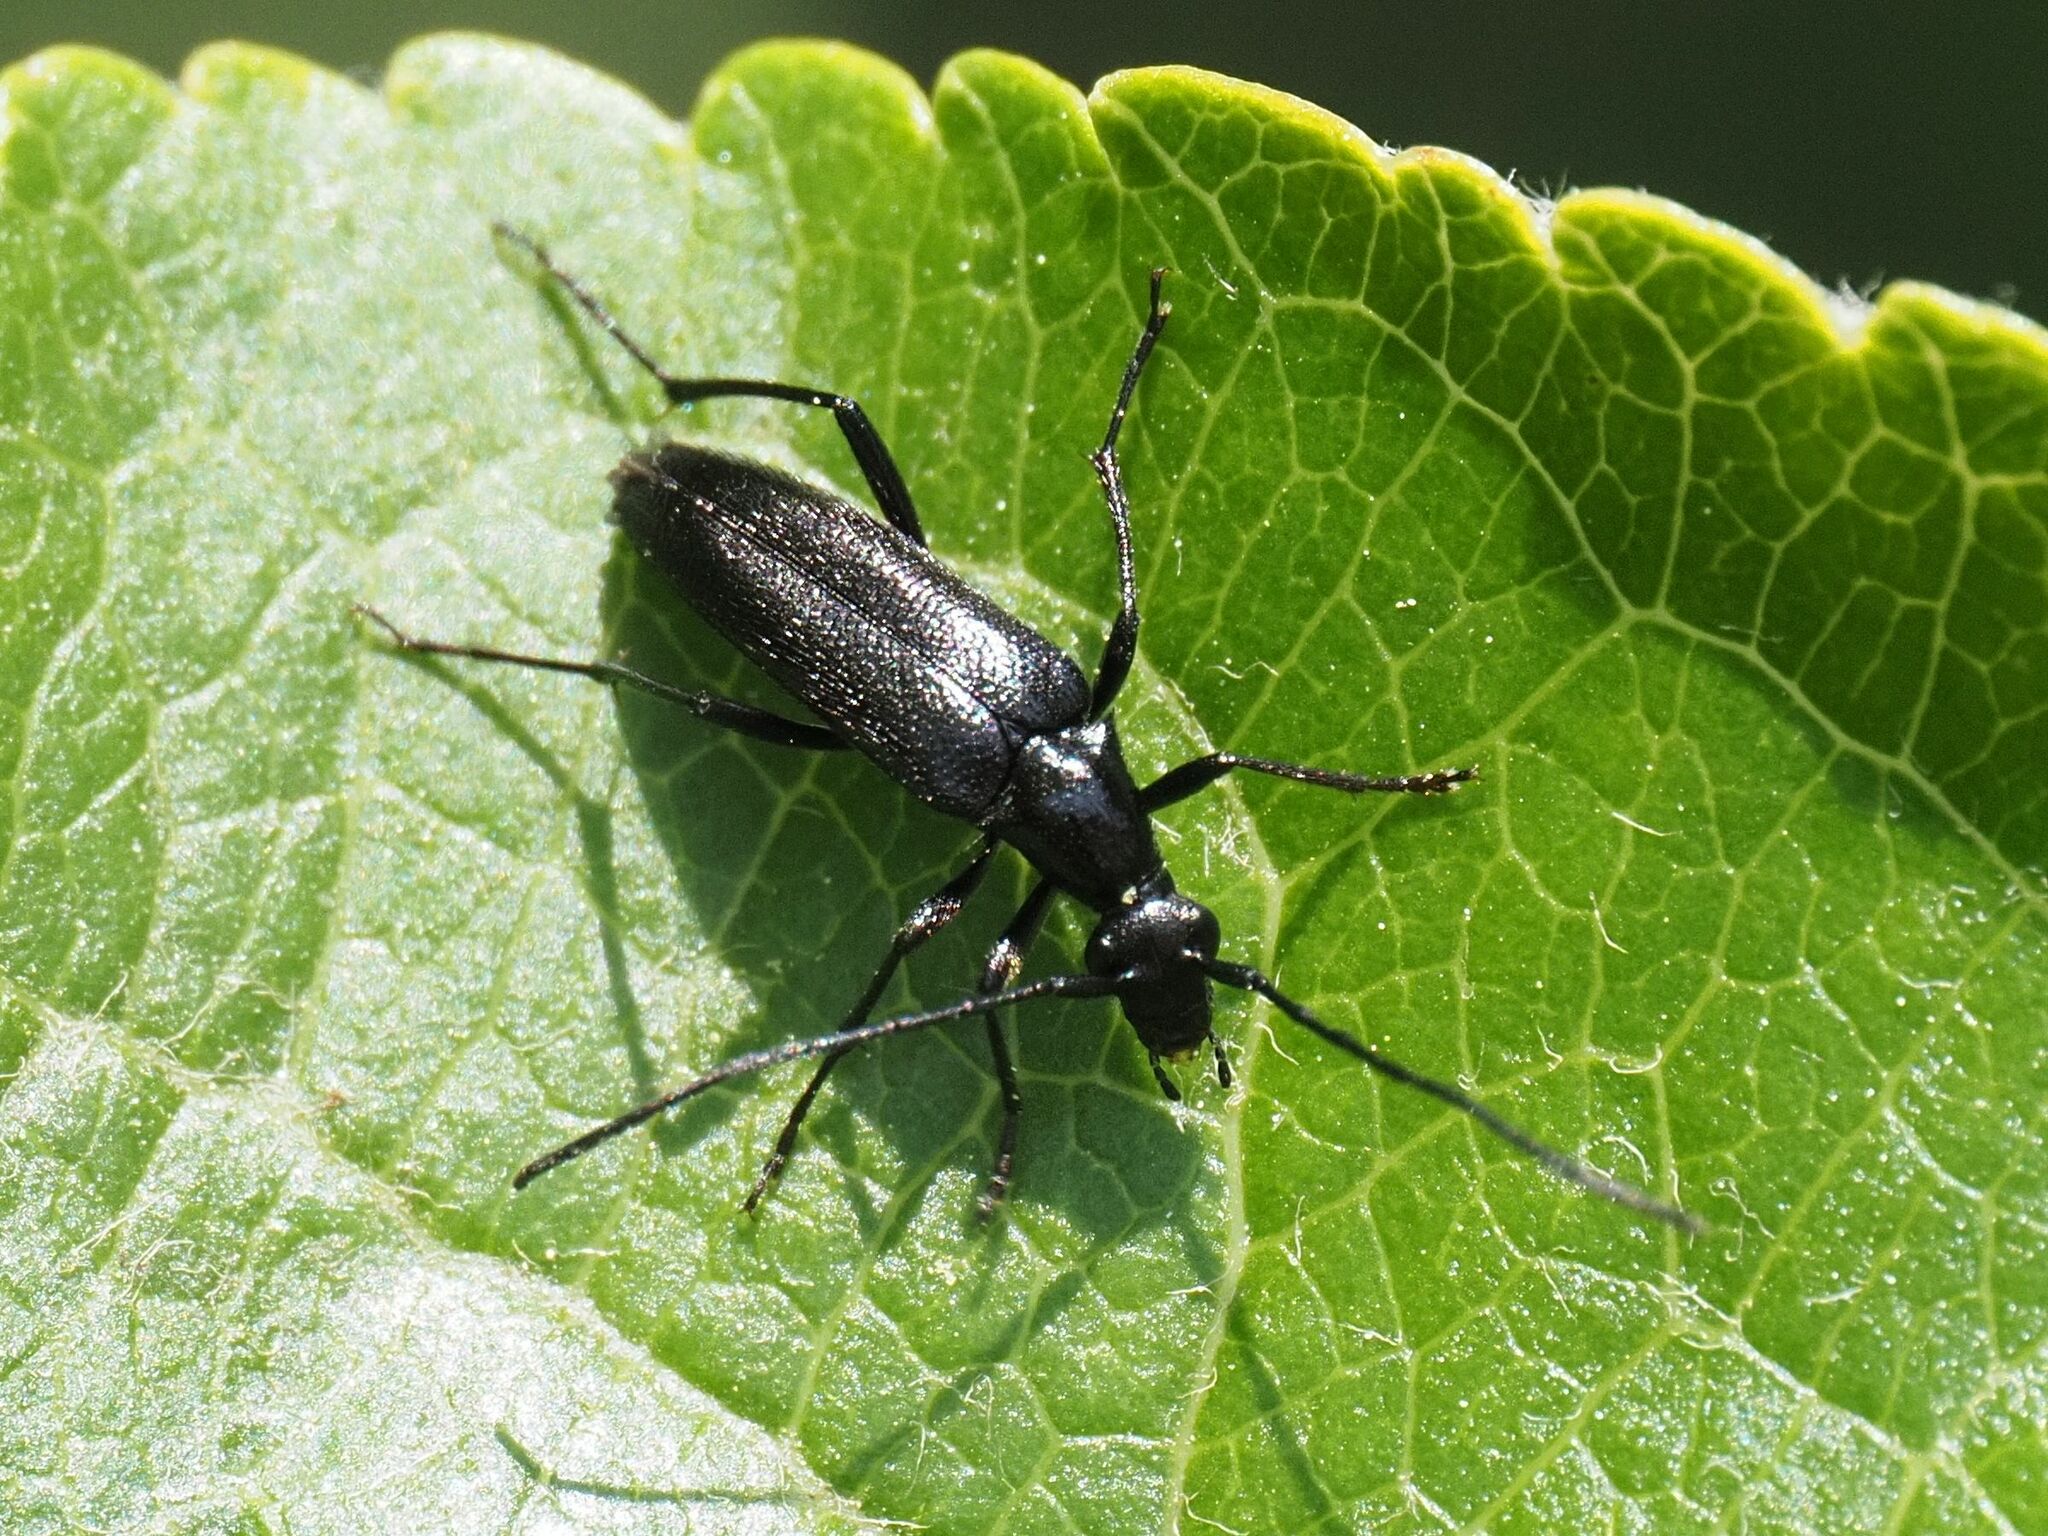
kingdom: Animalia
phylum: Arthropoda
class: Insecta
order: Coleoptera
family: Cerambycidae
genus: Stenurella
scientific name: Stenurella nigra
